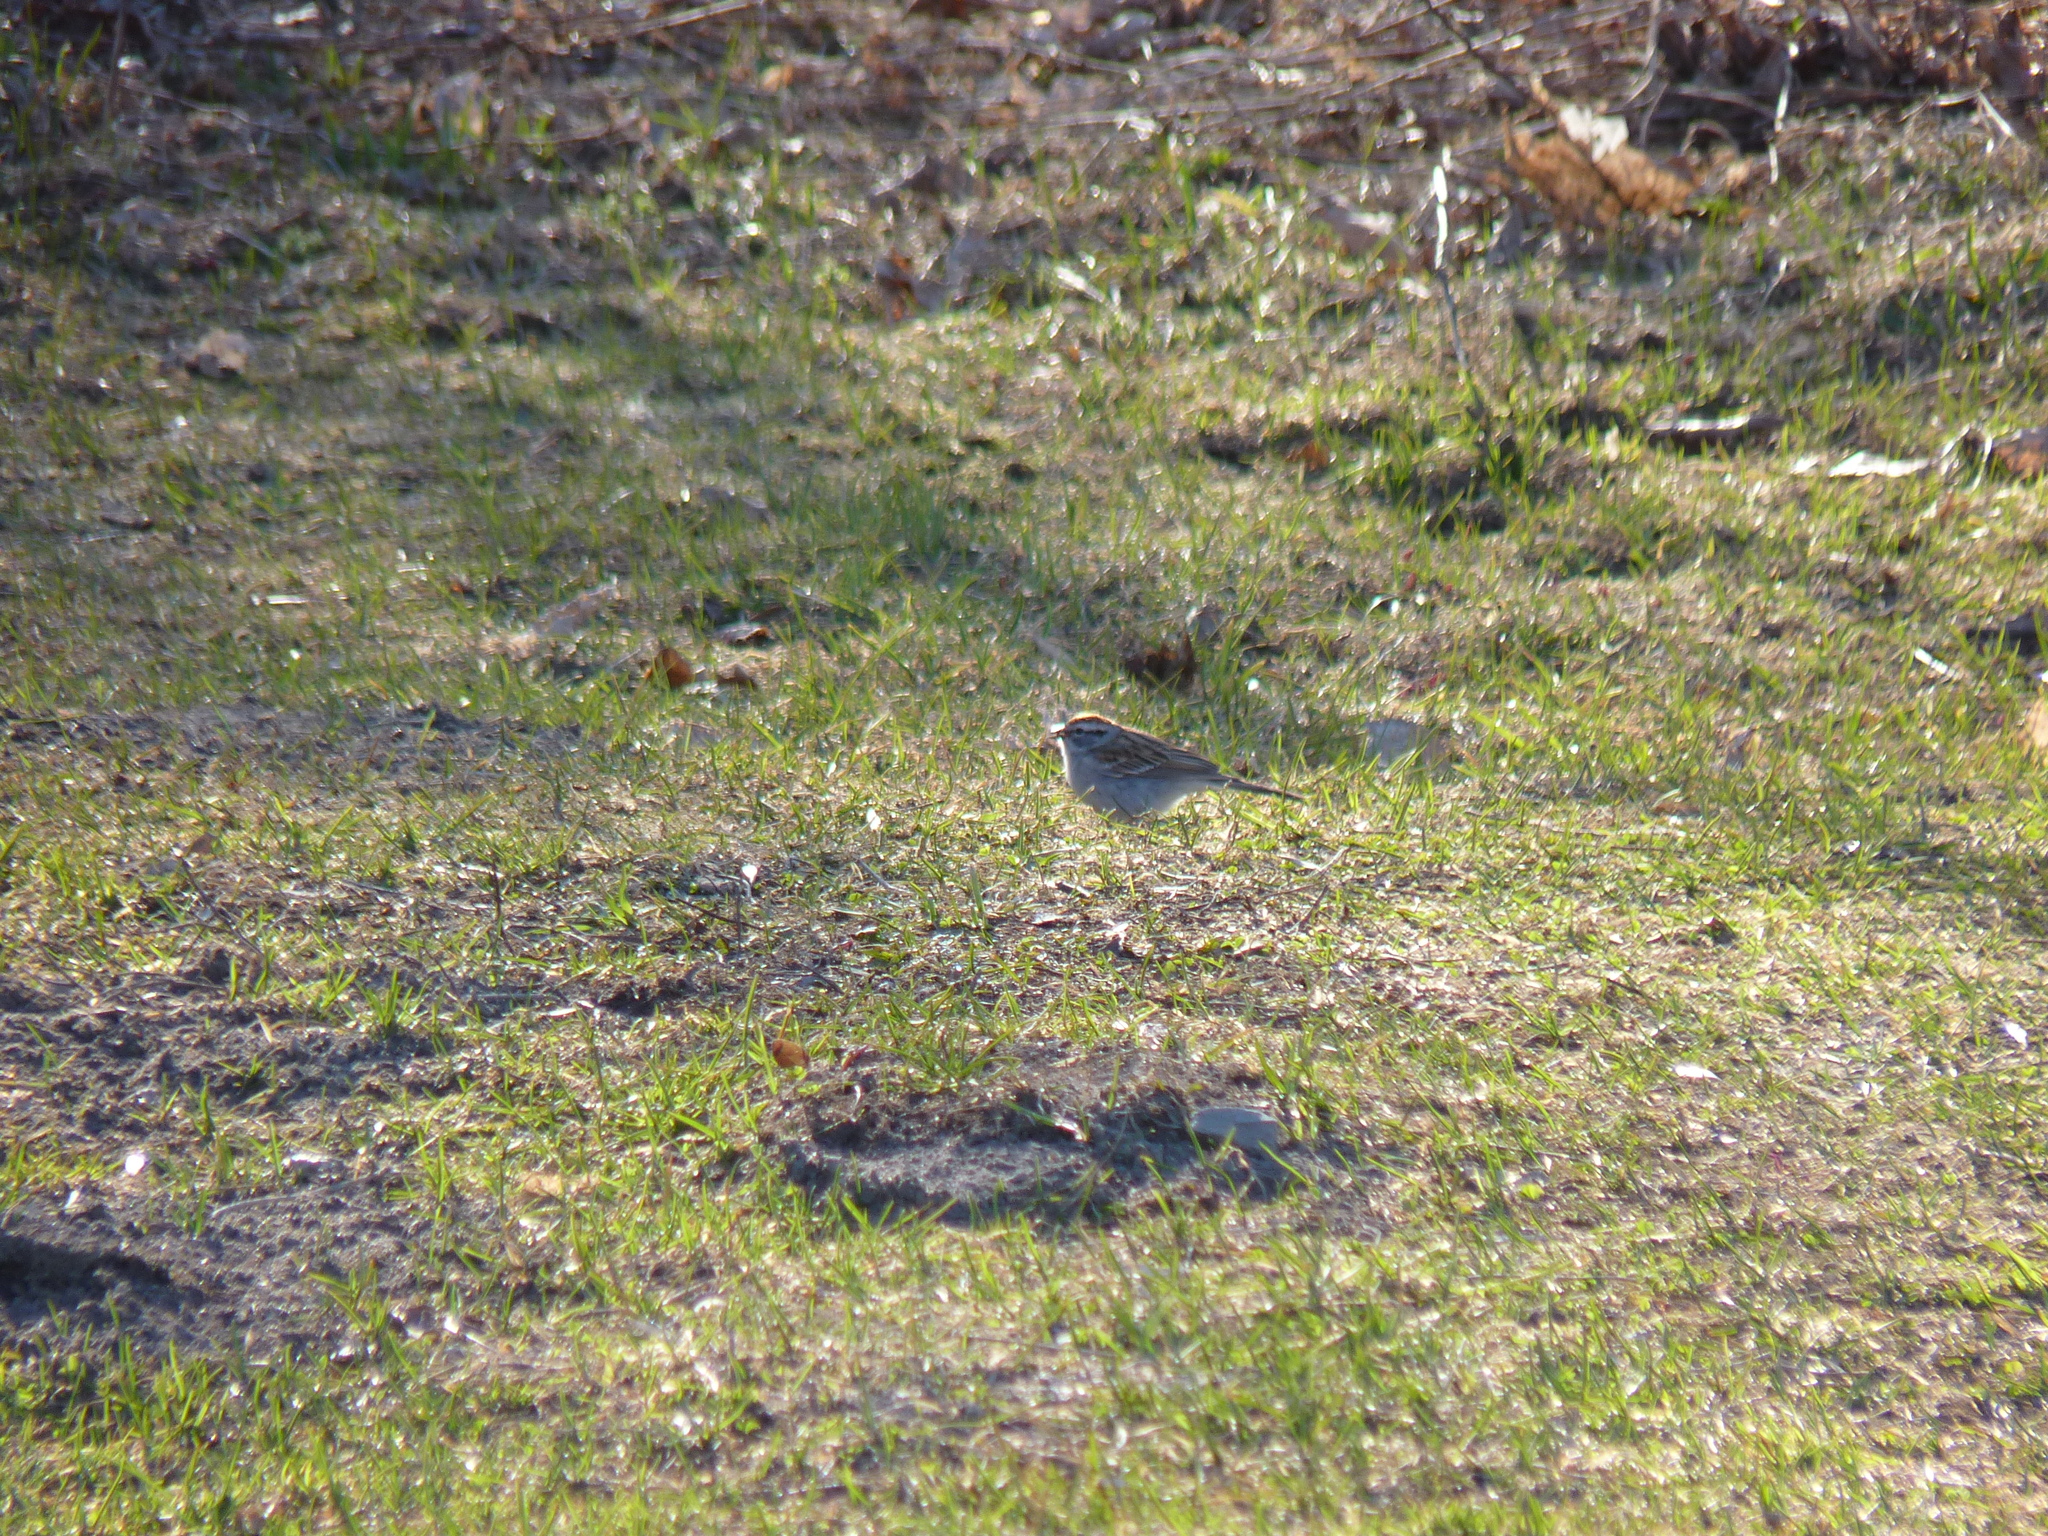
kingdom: Animalia
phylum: Chordata
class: Aves
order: Passeriformes
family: Passerellidae
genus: Spizella
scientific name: Spizella passerina
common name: Chipping sparrow
